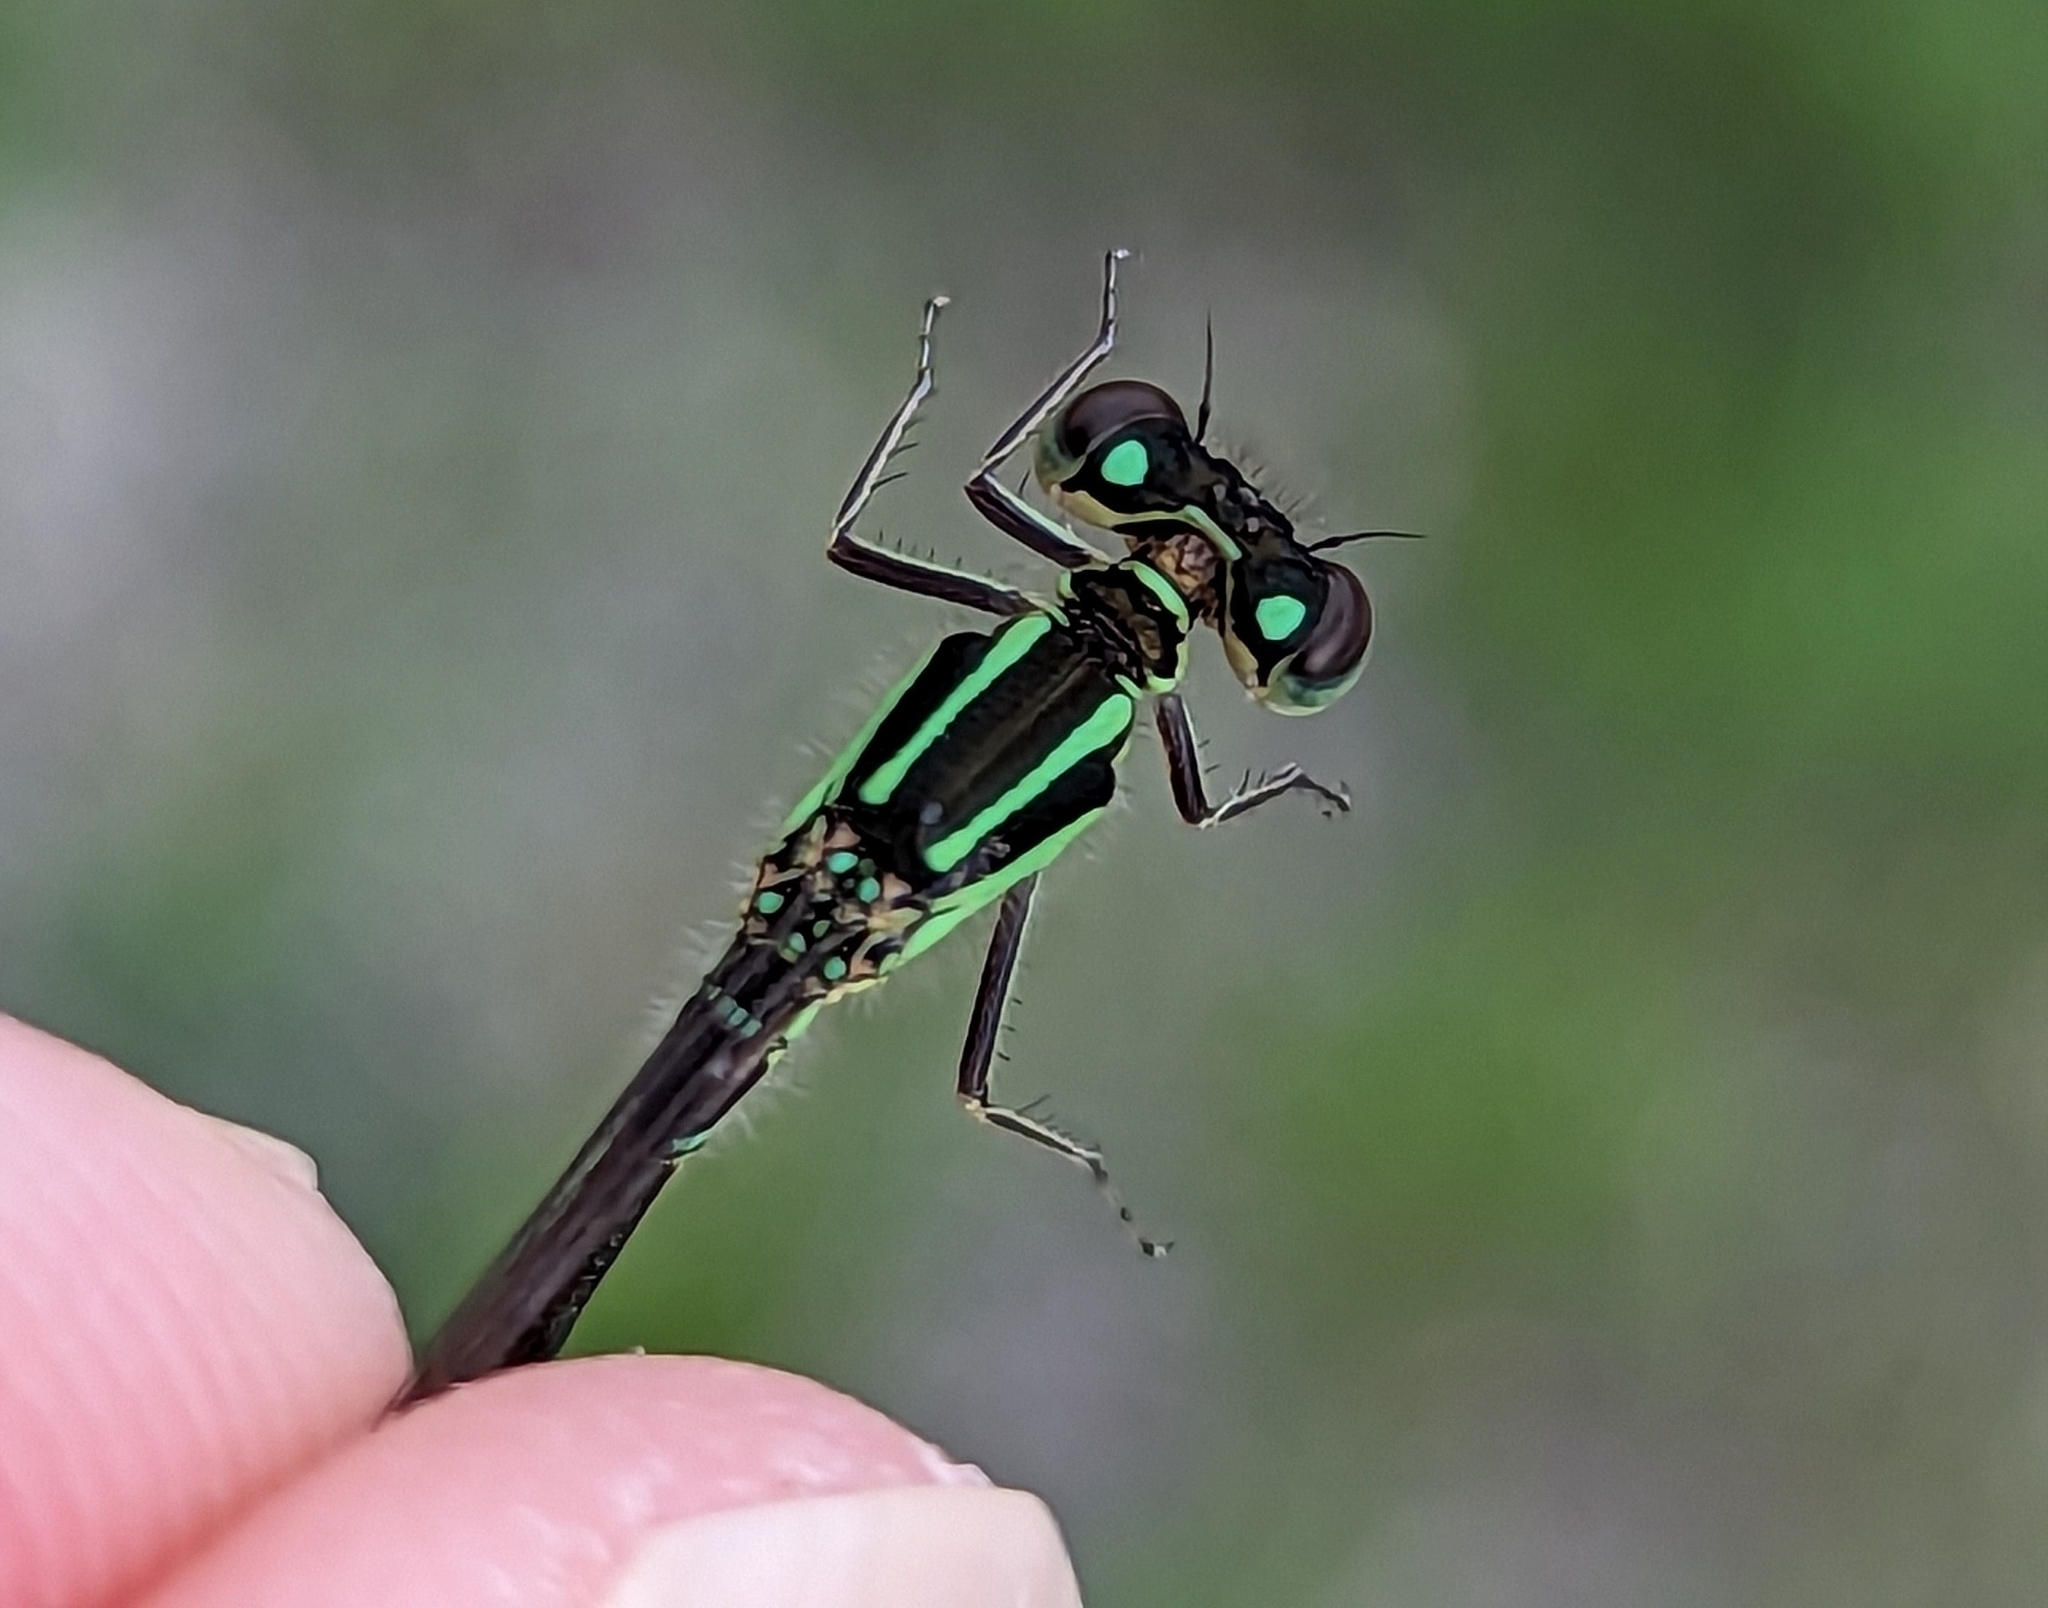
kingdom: Animalia
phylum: Arthropoda
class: Insecta
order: Odonata
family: Coenagrionidae
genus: Ischnura
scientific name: Ischnura verticalis
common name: Eastern forktail
